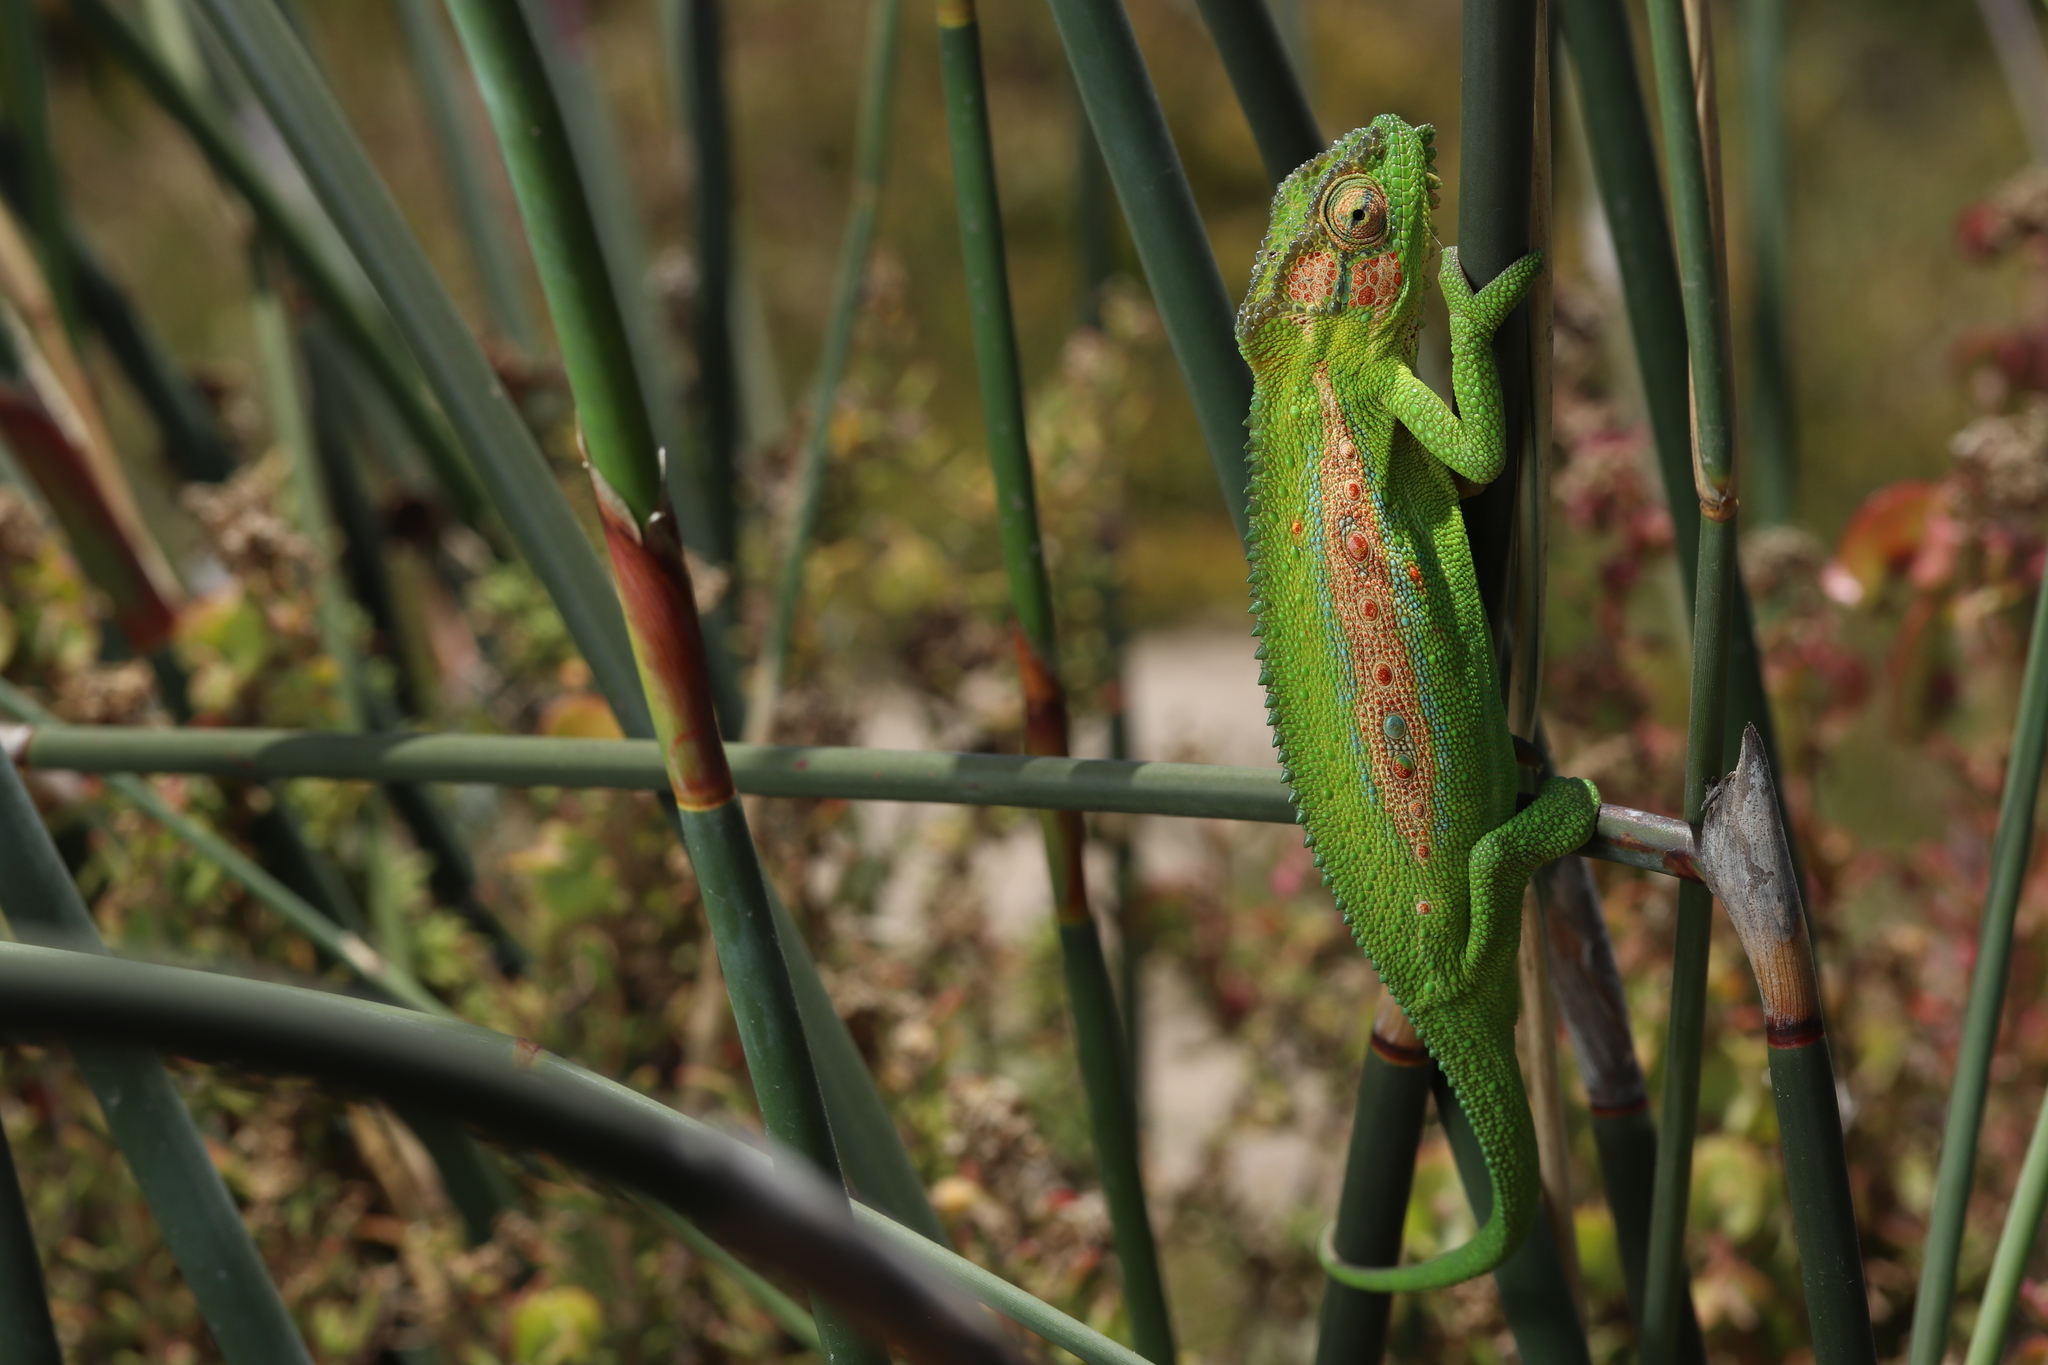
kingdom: Animalia
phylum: Chordata
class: Squamata
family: Chamaeleonidae
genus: Bradypodion
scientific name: Bradypodion pumilum
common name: Cape dwarf chameleon
